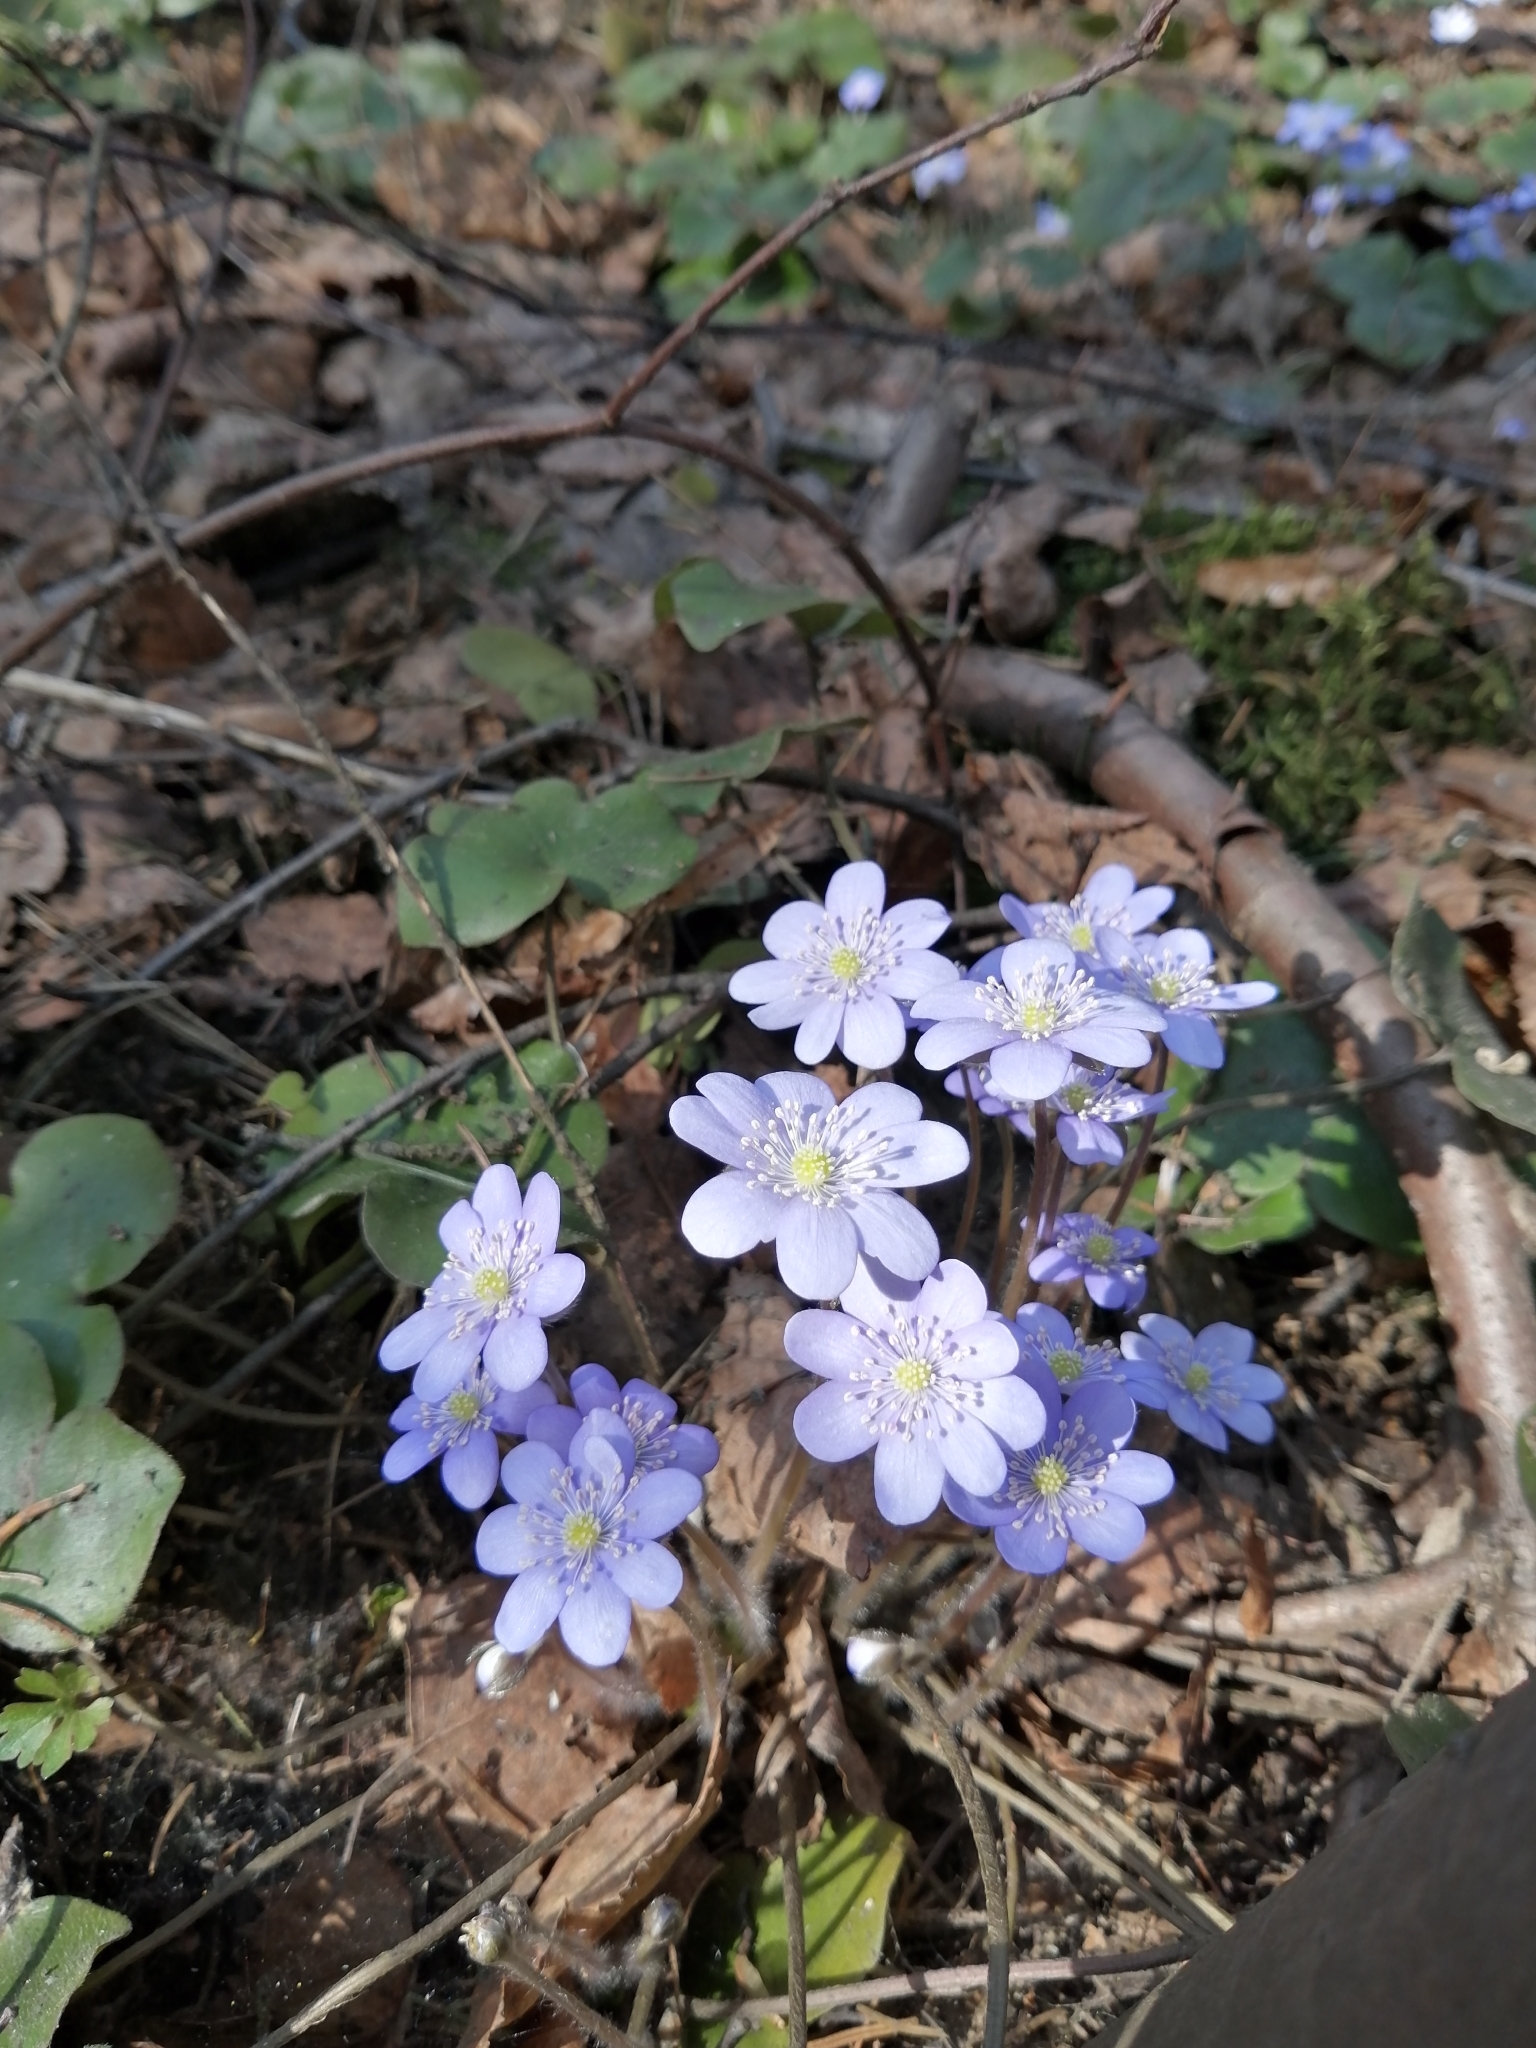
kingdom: Plantae
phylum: Tracheophyta
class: Magnoliopsida
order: Ranunculales
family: Ranunculaceae
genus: Hepatica
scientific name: Hepatica nobilis
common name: Liverleaf
